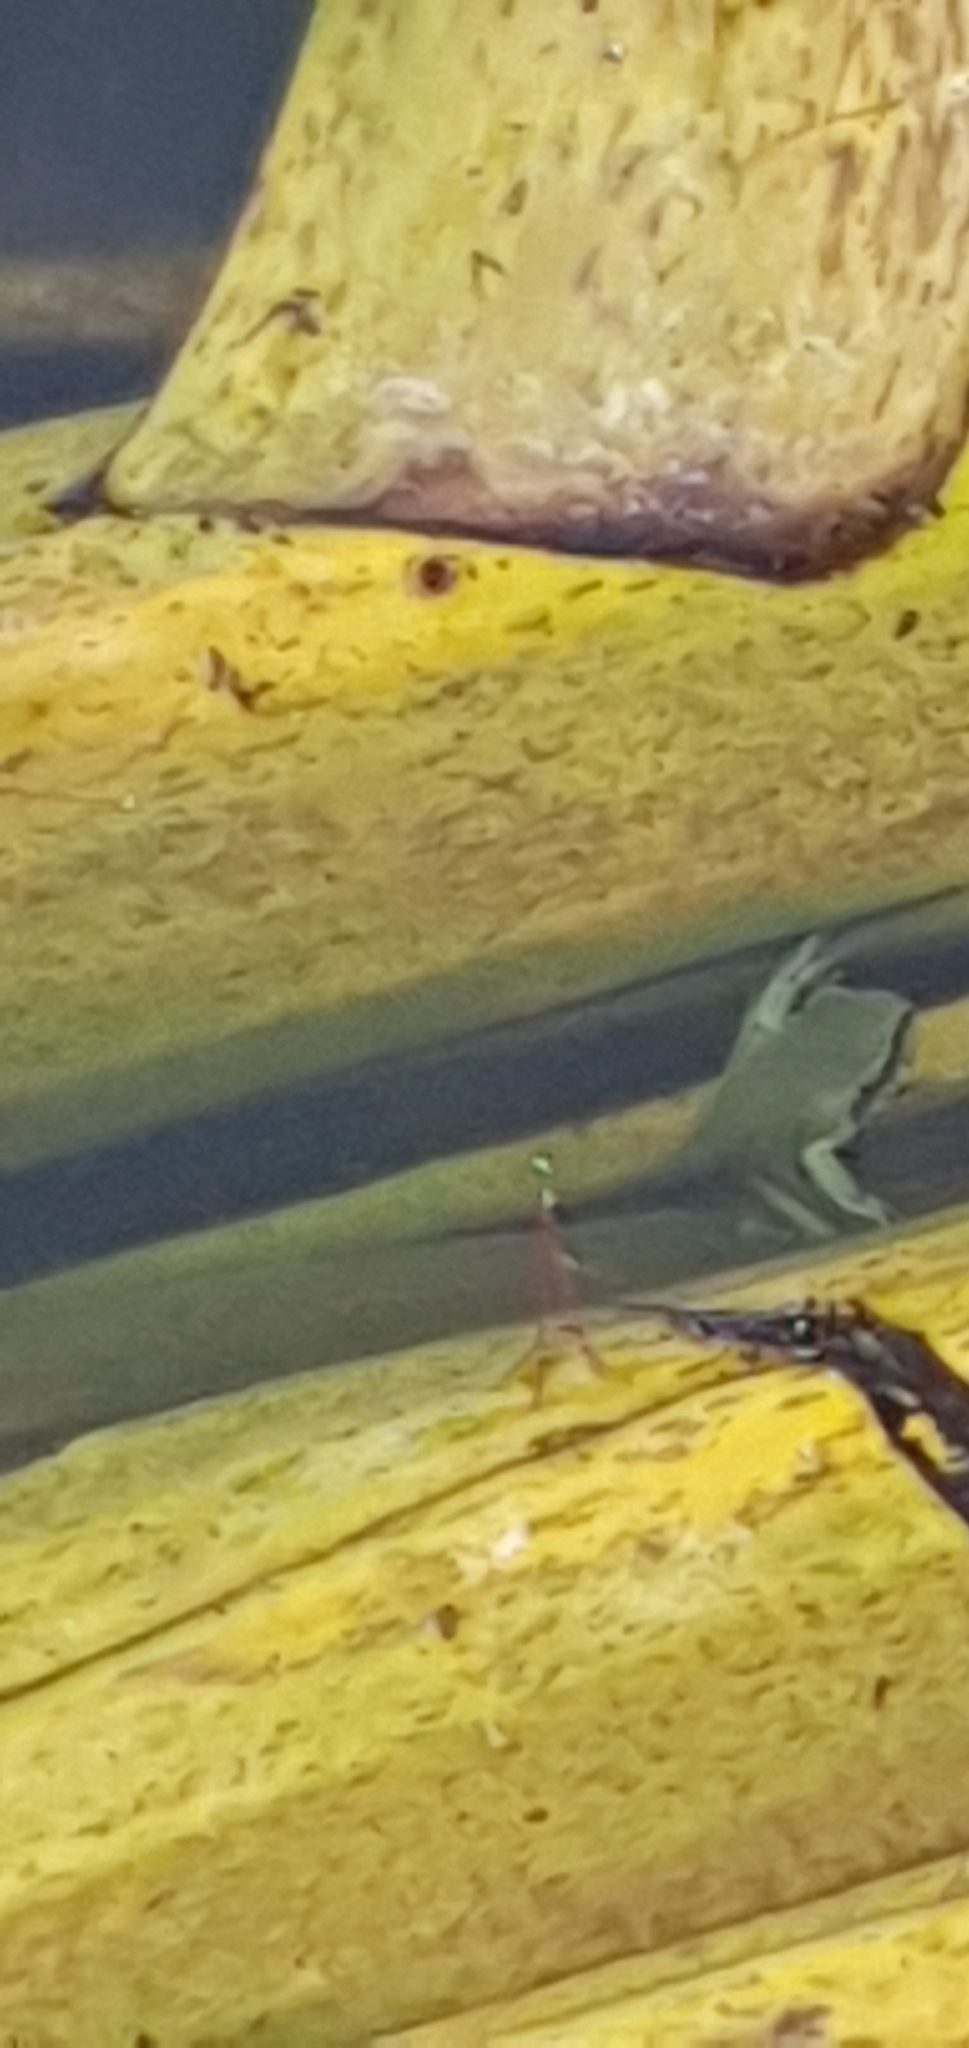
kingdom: Animalia
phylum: Chordata
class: Amphibia
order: Anura
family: Pelodryadidae
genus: Ranoidea
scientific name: Ranoidea caerulea
